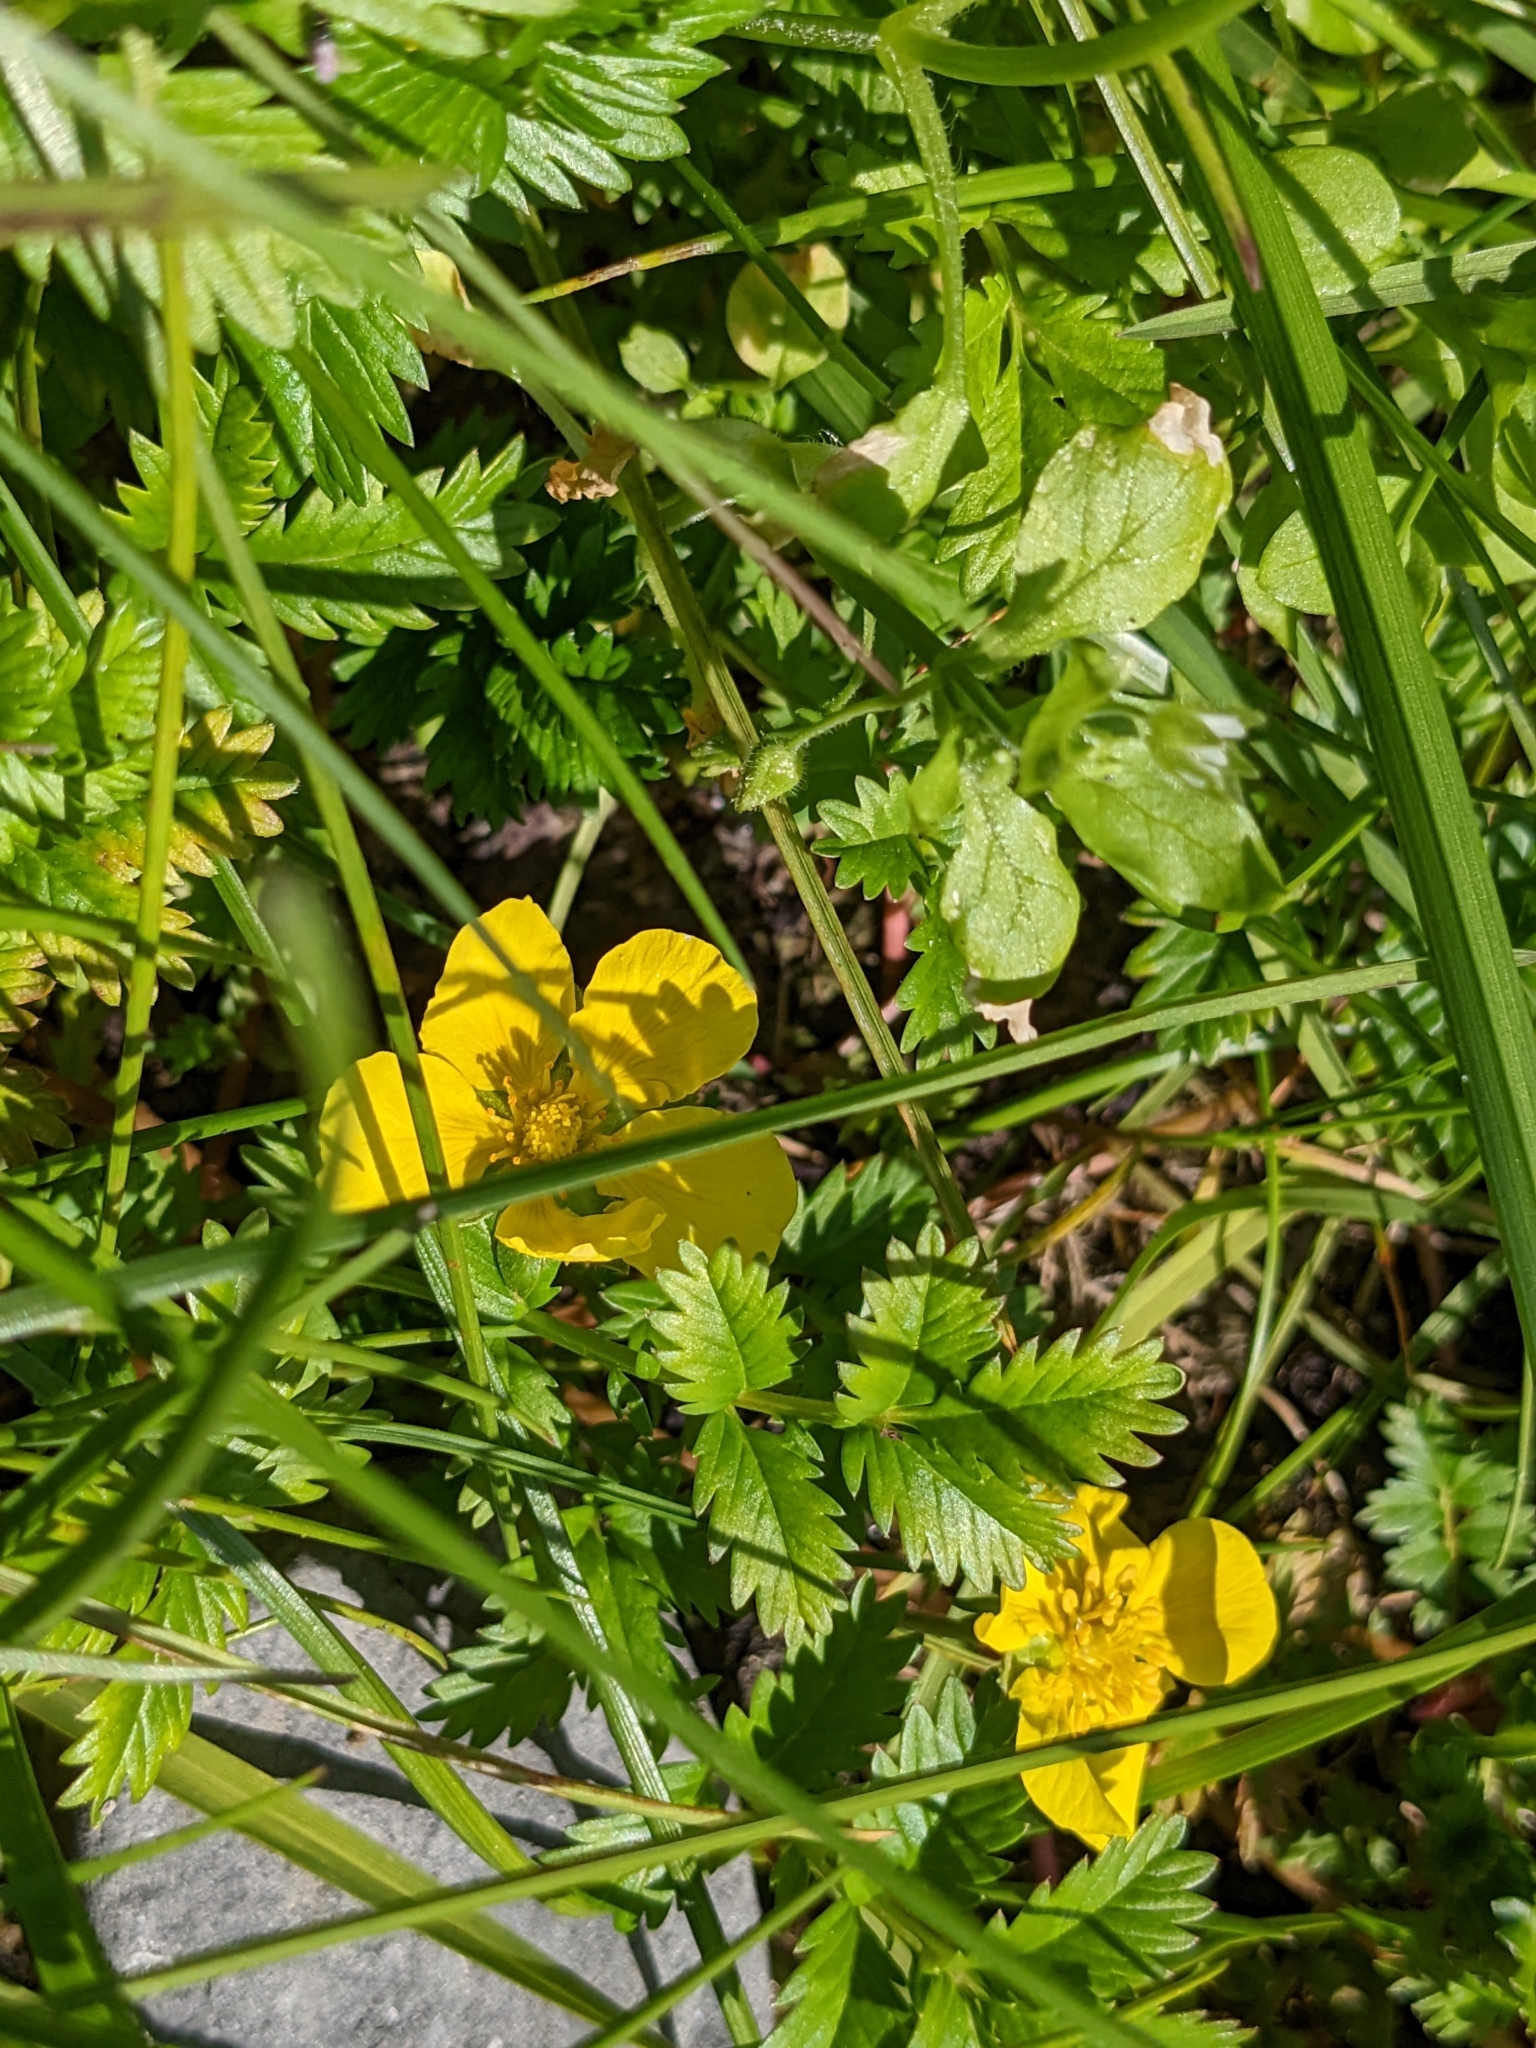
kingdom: Plantae
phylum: Tracheophyta
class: Magnoliopsida
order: Rosales
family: Rosaceae
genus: Argentina
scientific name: Argentina anserina
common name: Common silverweed
